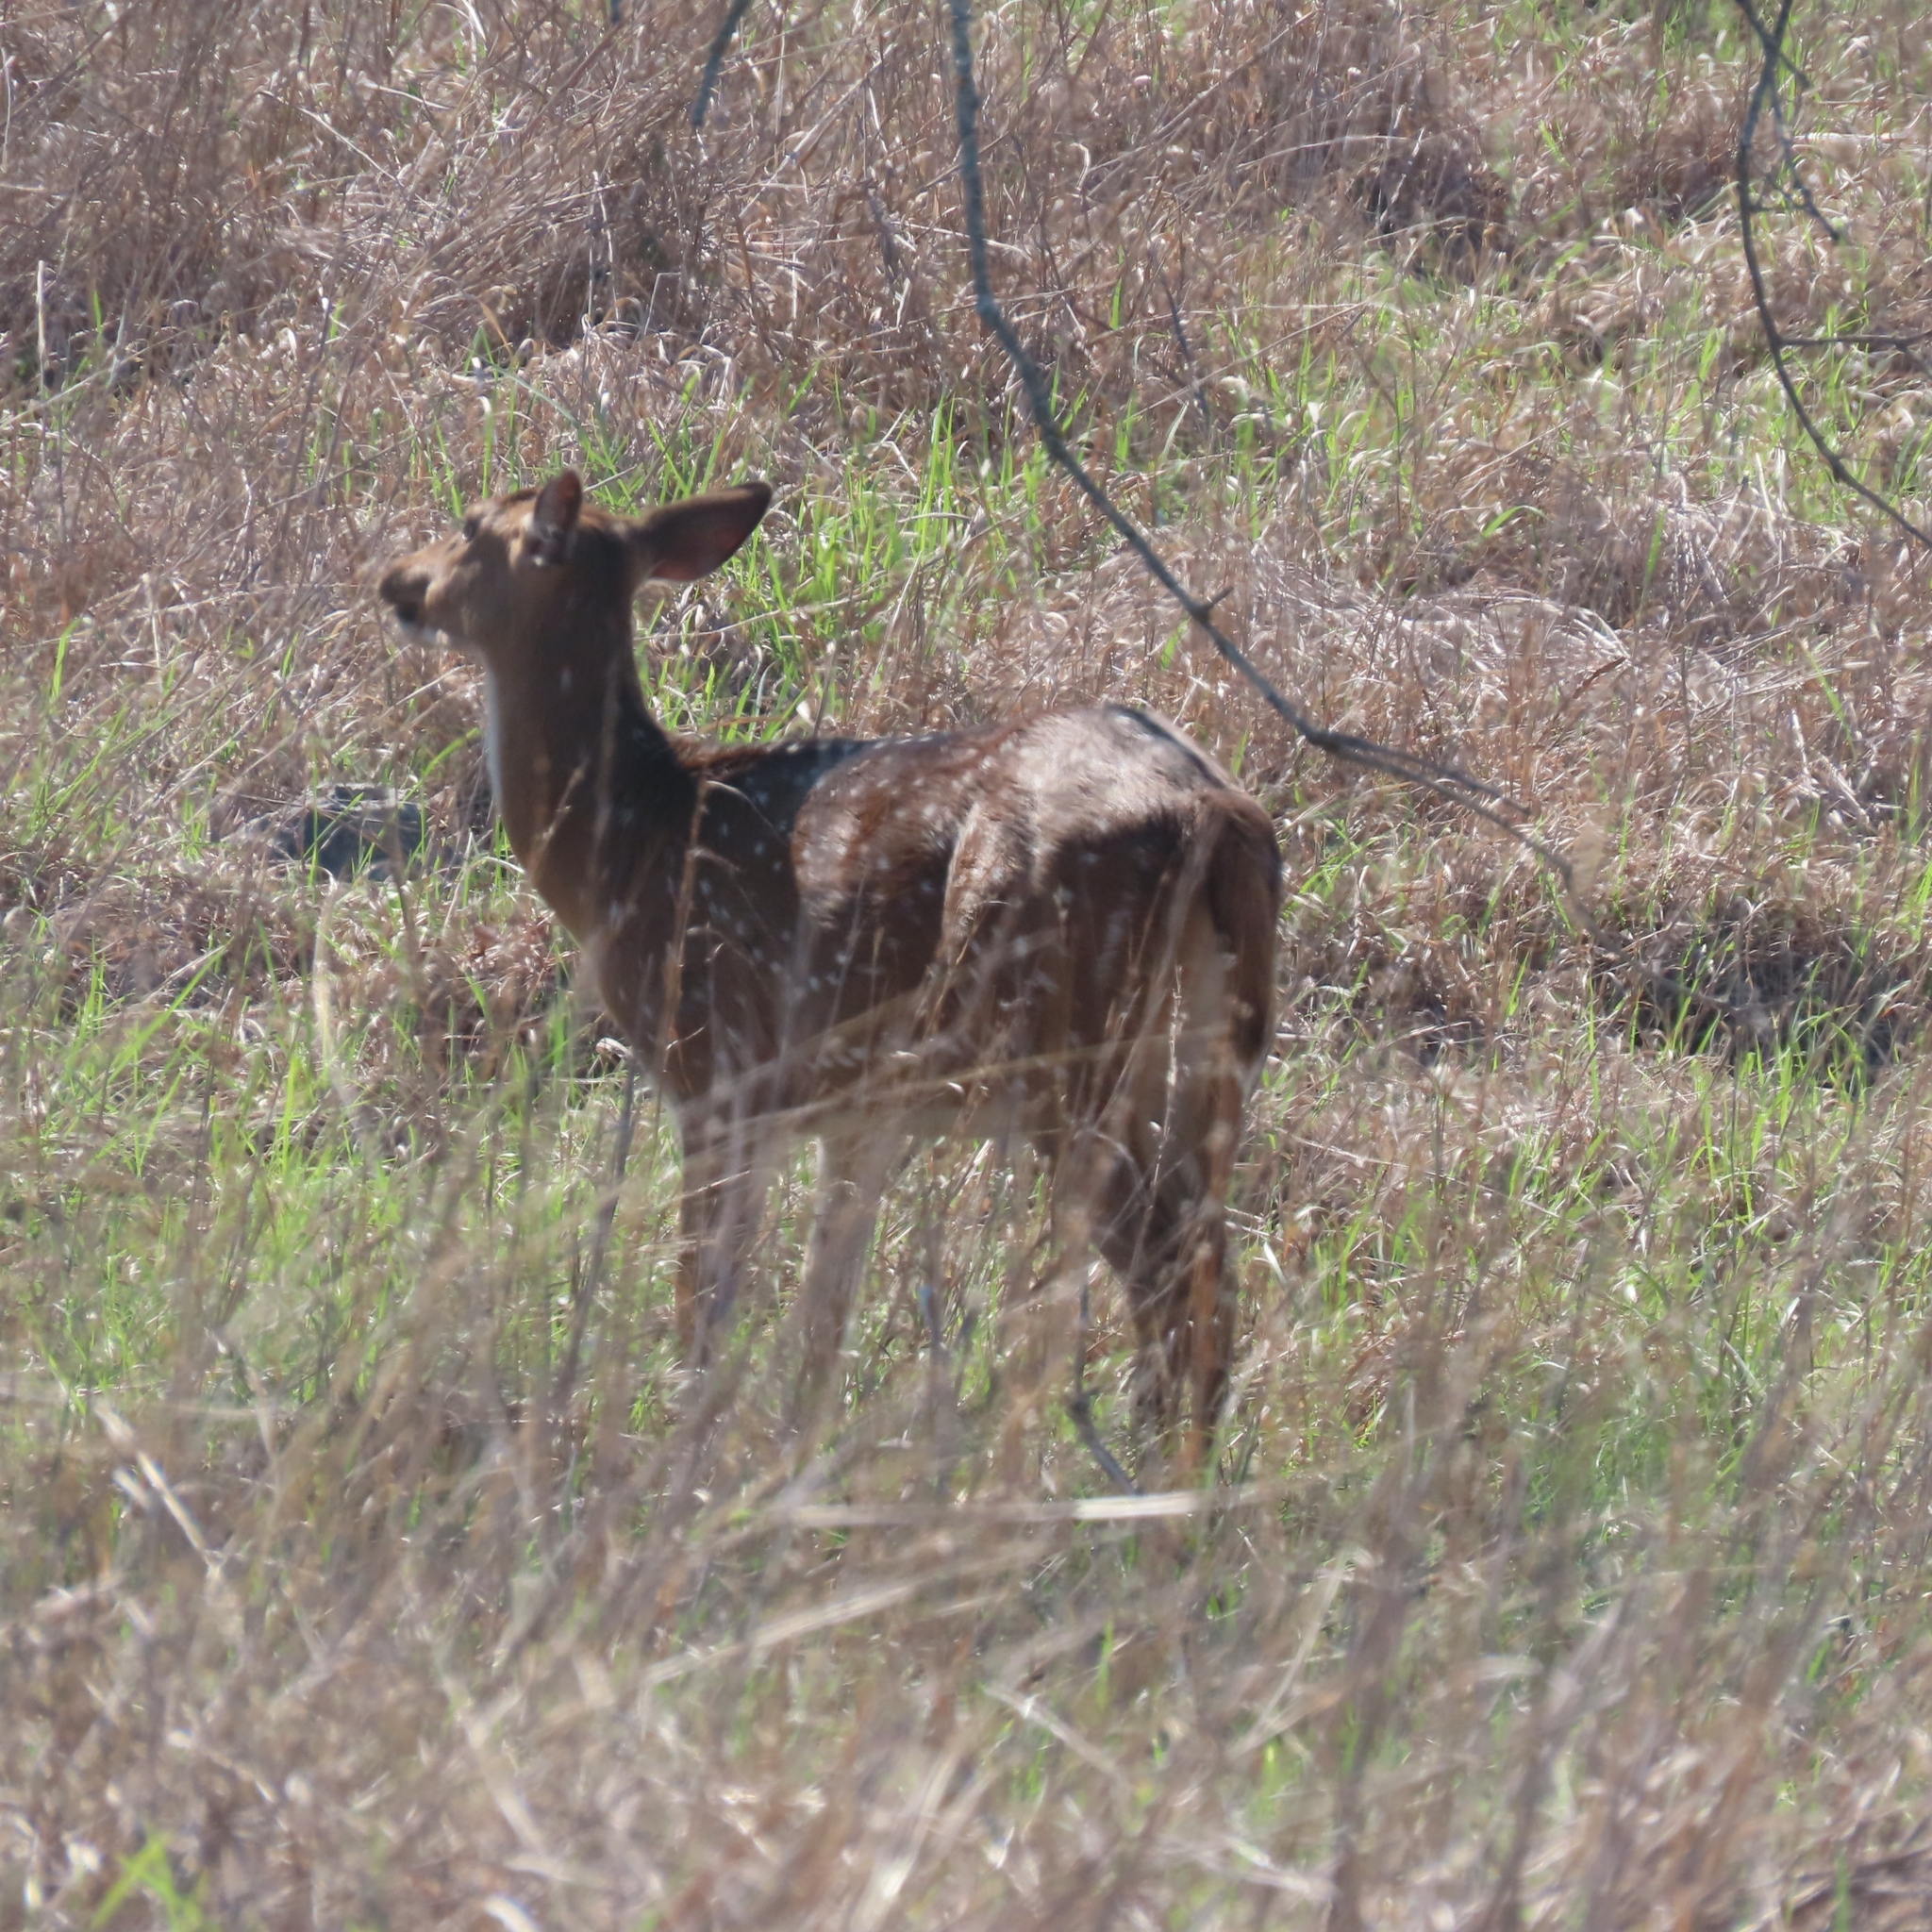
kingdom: Animalia
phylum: Chordata
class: Mammalia
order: Artiodactyla
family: Cervidae
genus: Axis
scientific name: Axis axis
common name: Chital
